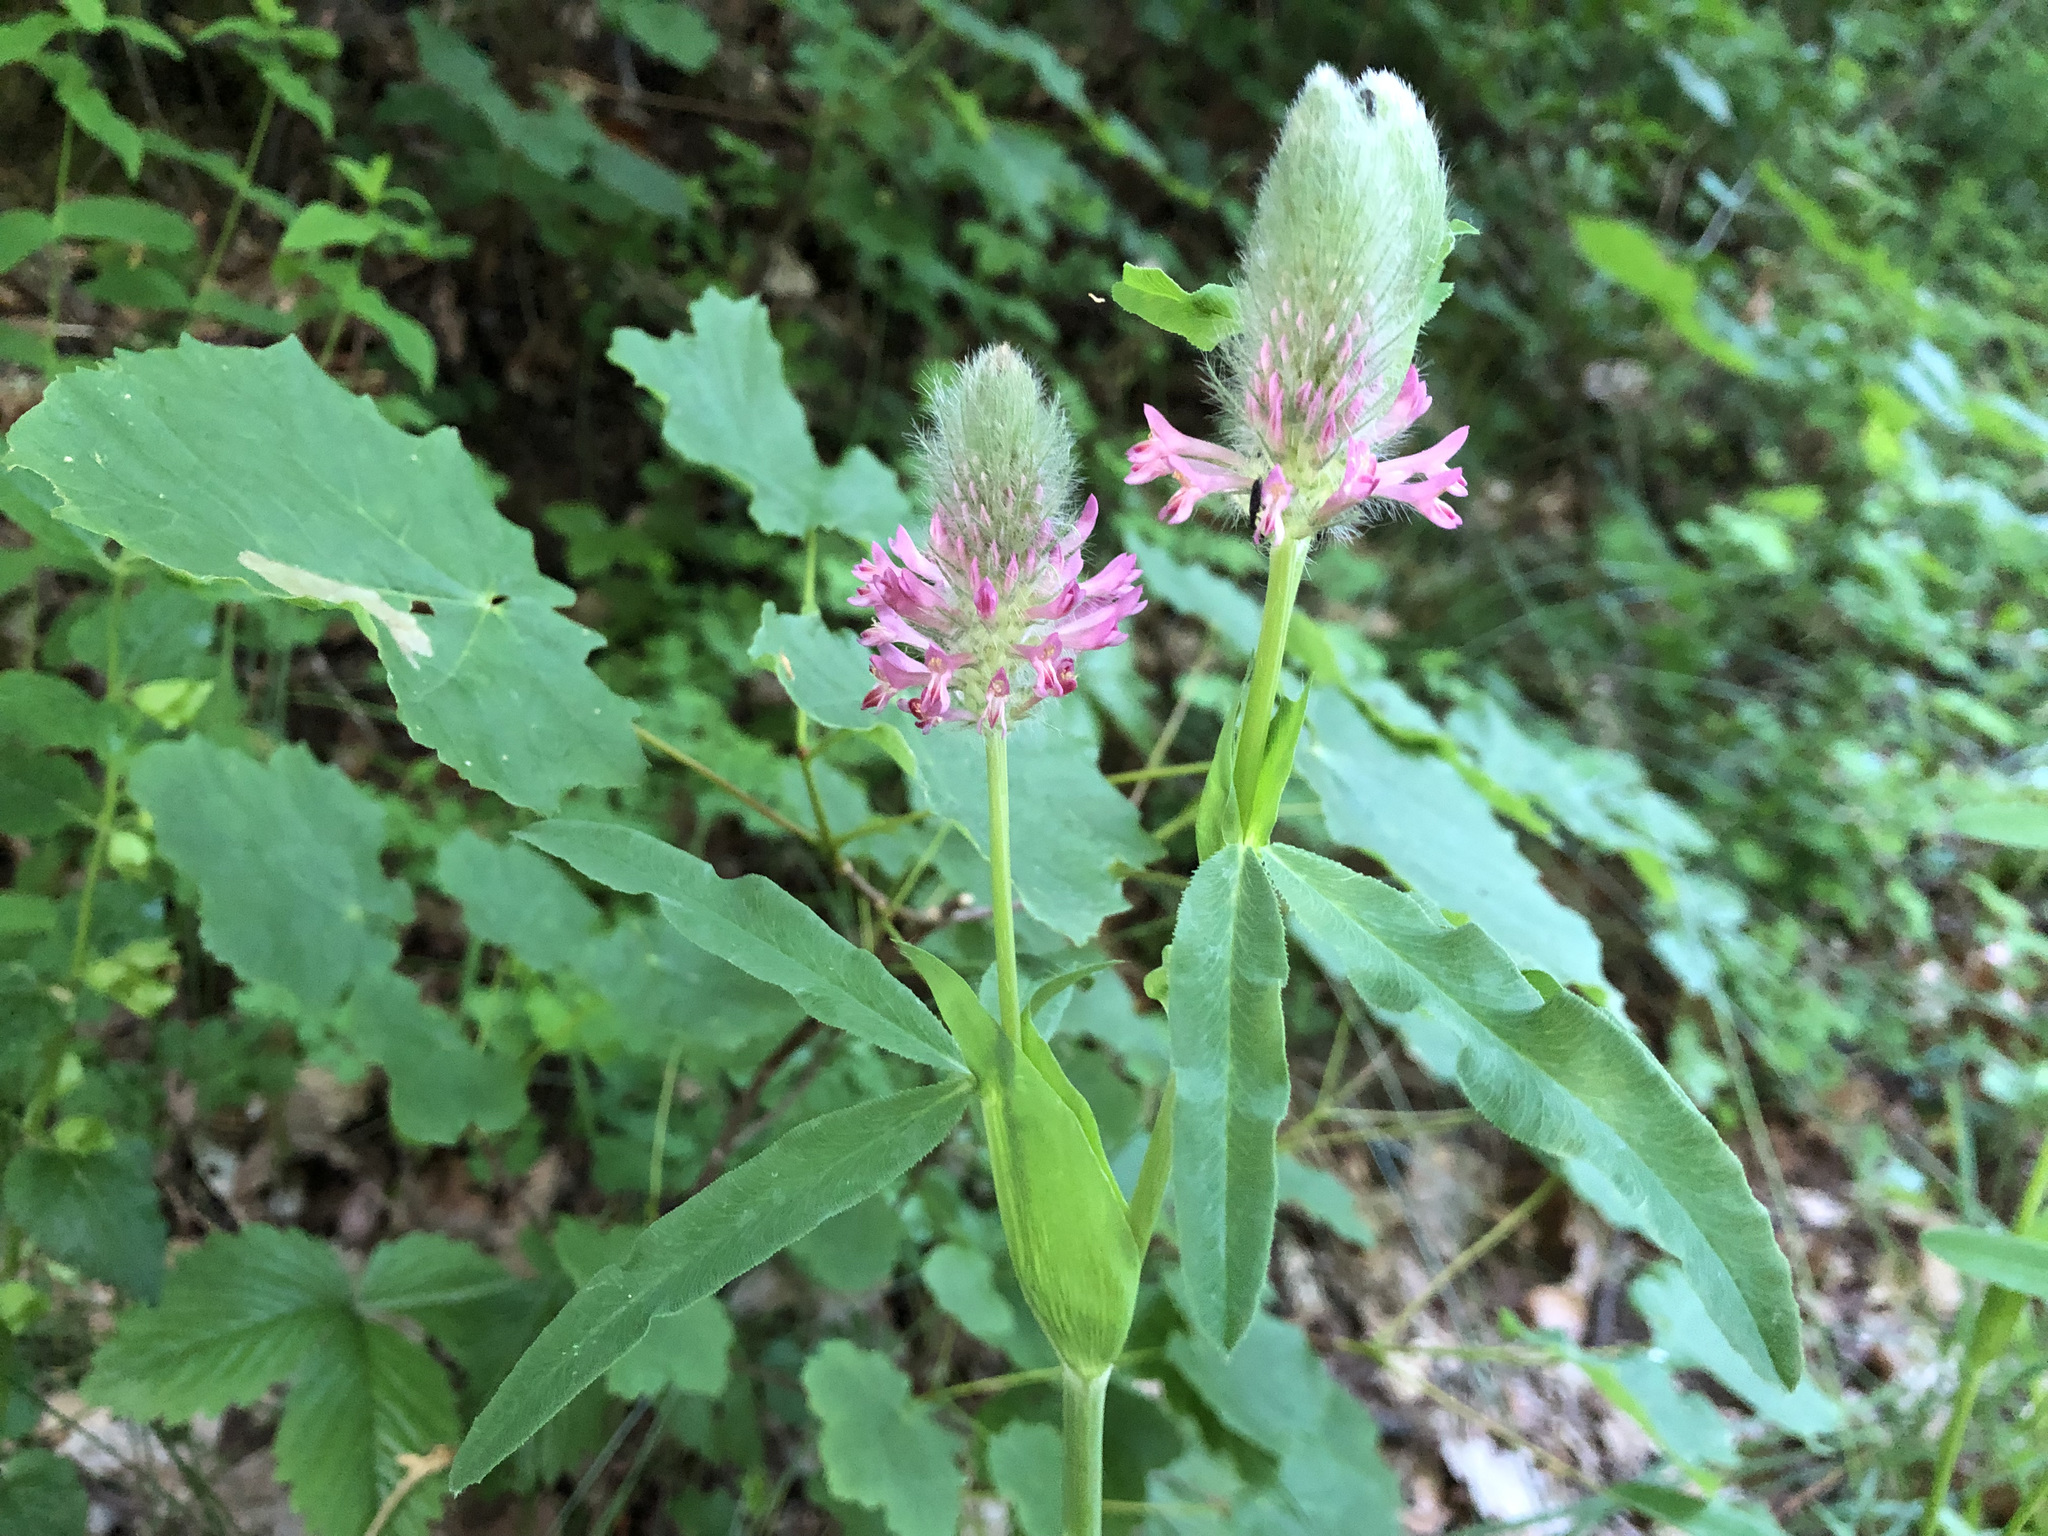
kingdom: Plantae
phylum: Tracheophyta
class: Magnoliopsida
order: Fabales
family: Fabaceae
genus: Trifolium
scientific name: Trifolium rubens
